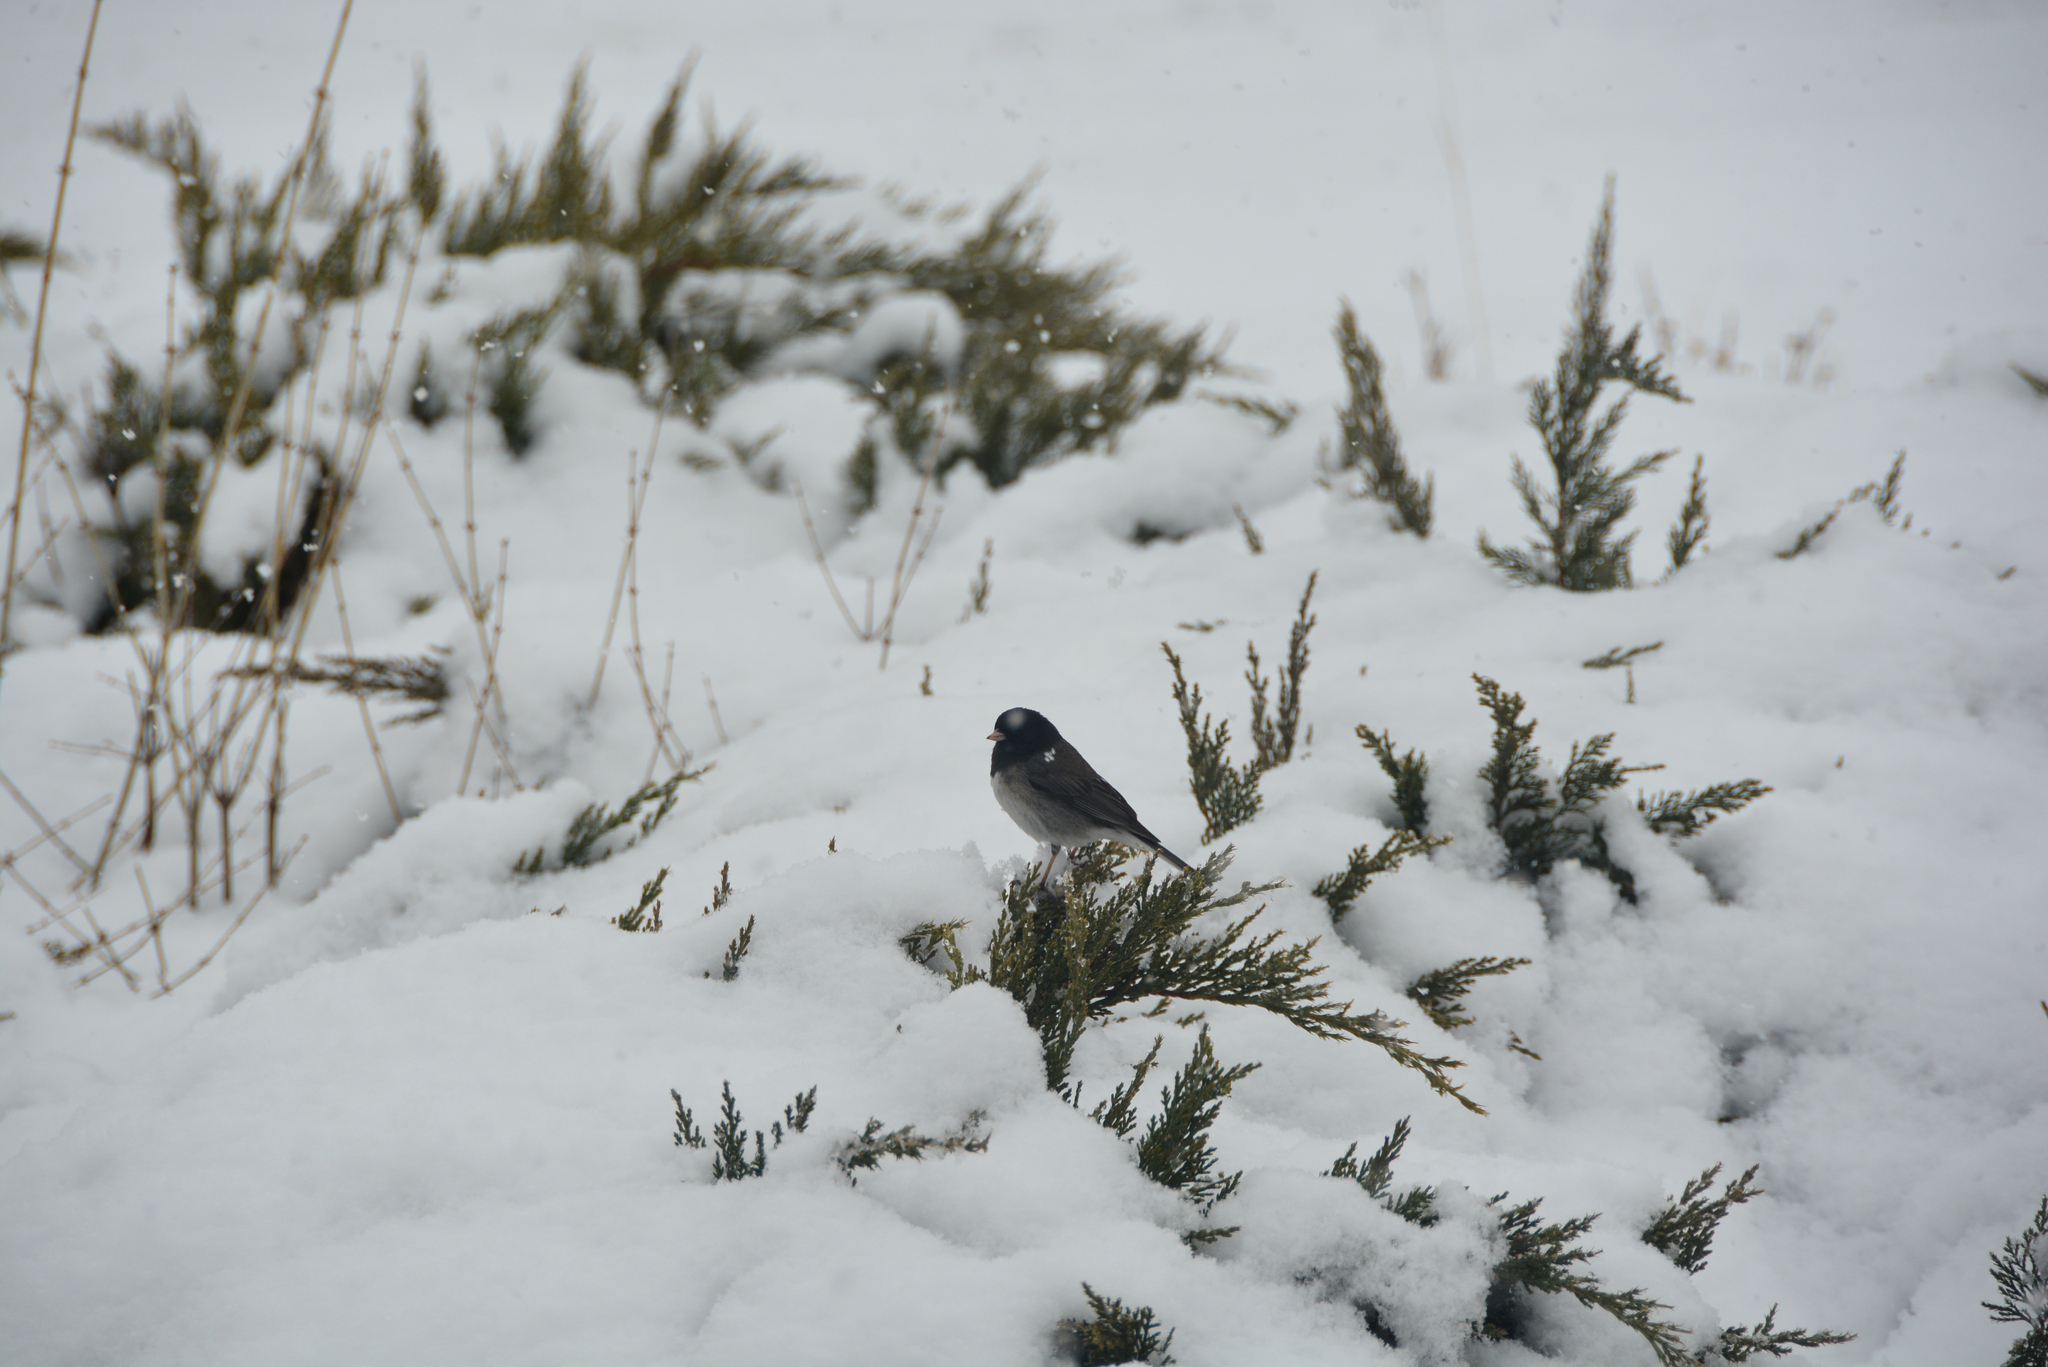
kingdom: Animalia
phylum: Chordata
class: Aves
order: Passeriformes
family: Passerellidae
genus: Junco
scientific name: Junco hyemalis
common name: Dark-eyed junco
